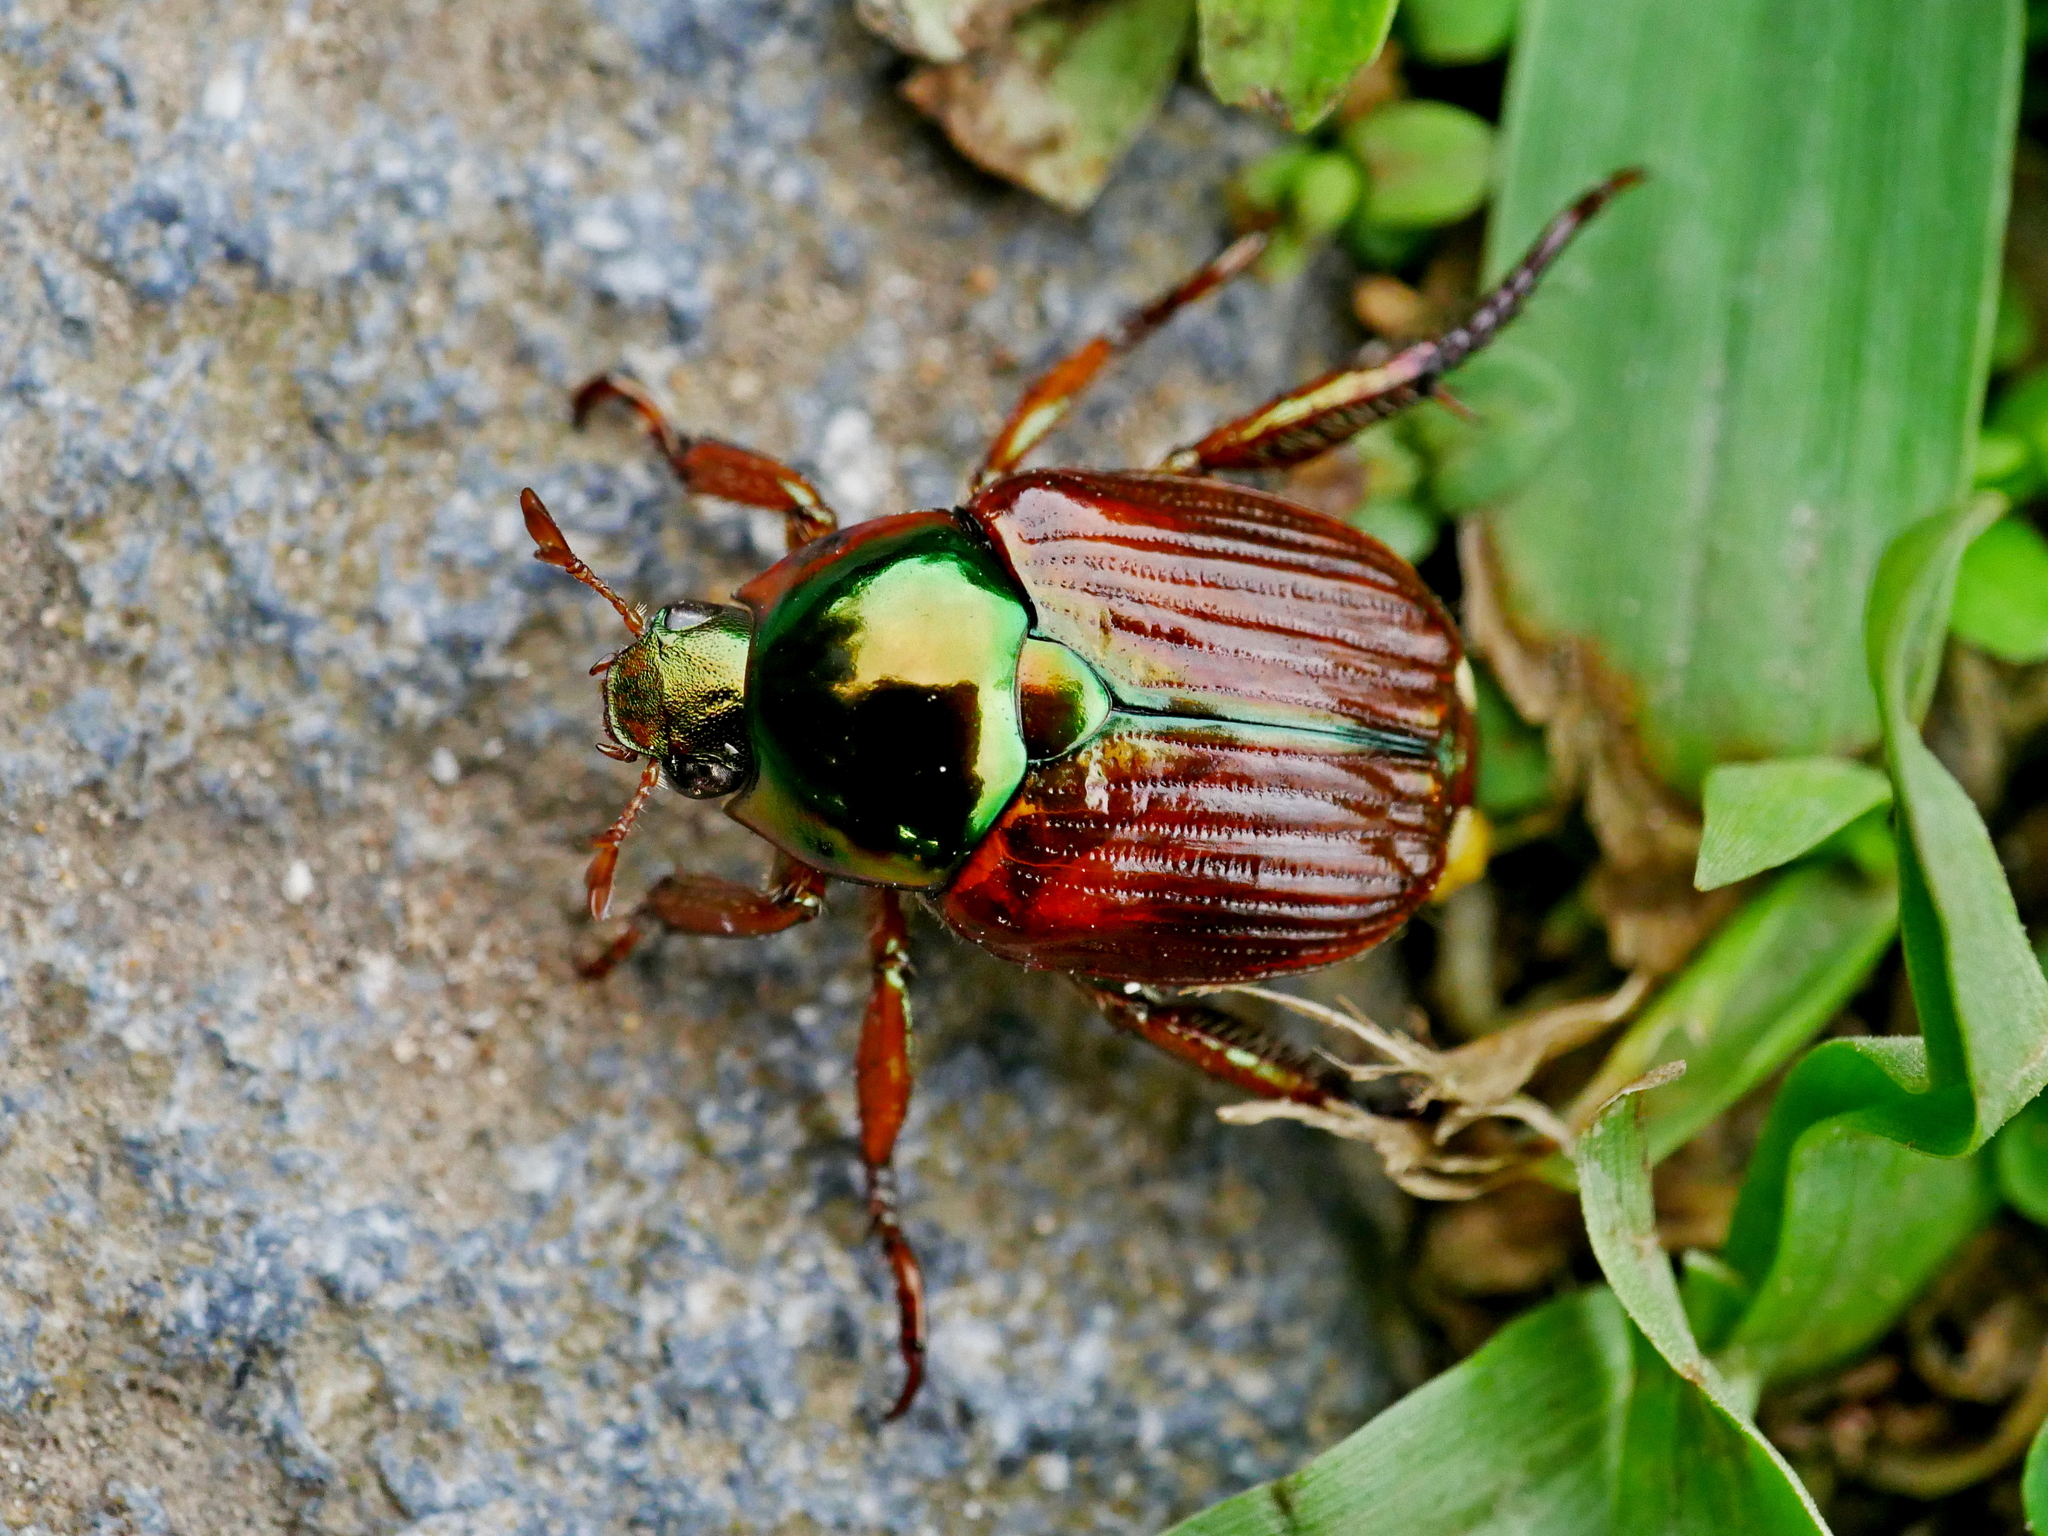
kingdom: Animalia
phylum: Arthropoda
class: Insecta
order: Coleoptera
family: Scarabaeidae
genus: Popillia
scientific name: Popillia mongolica
